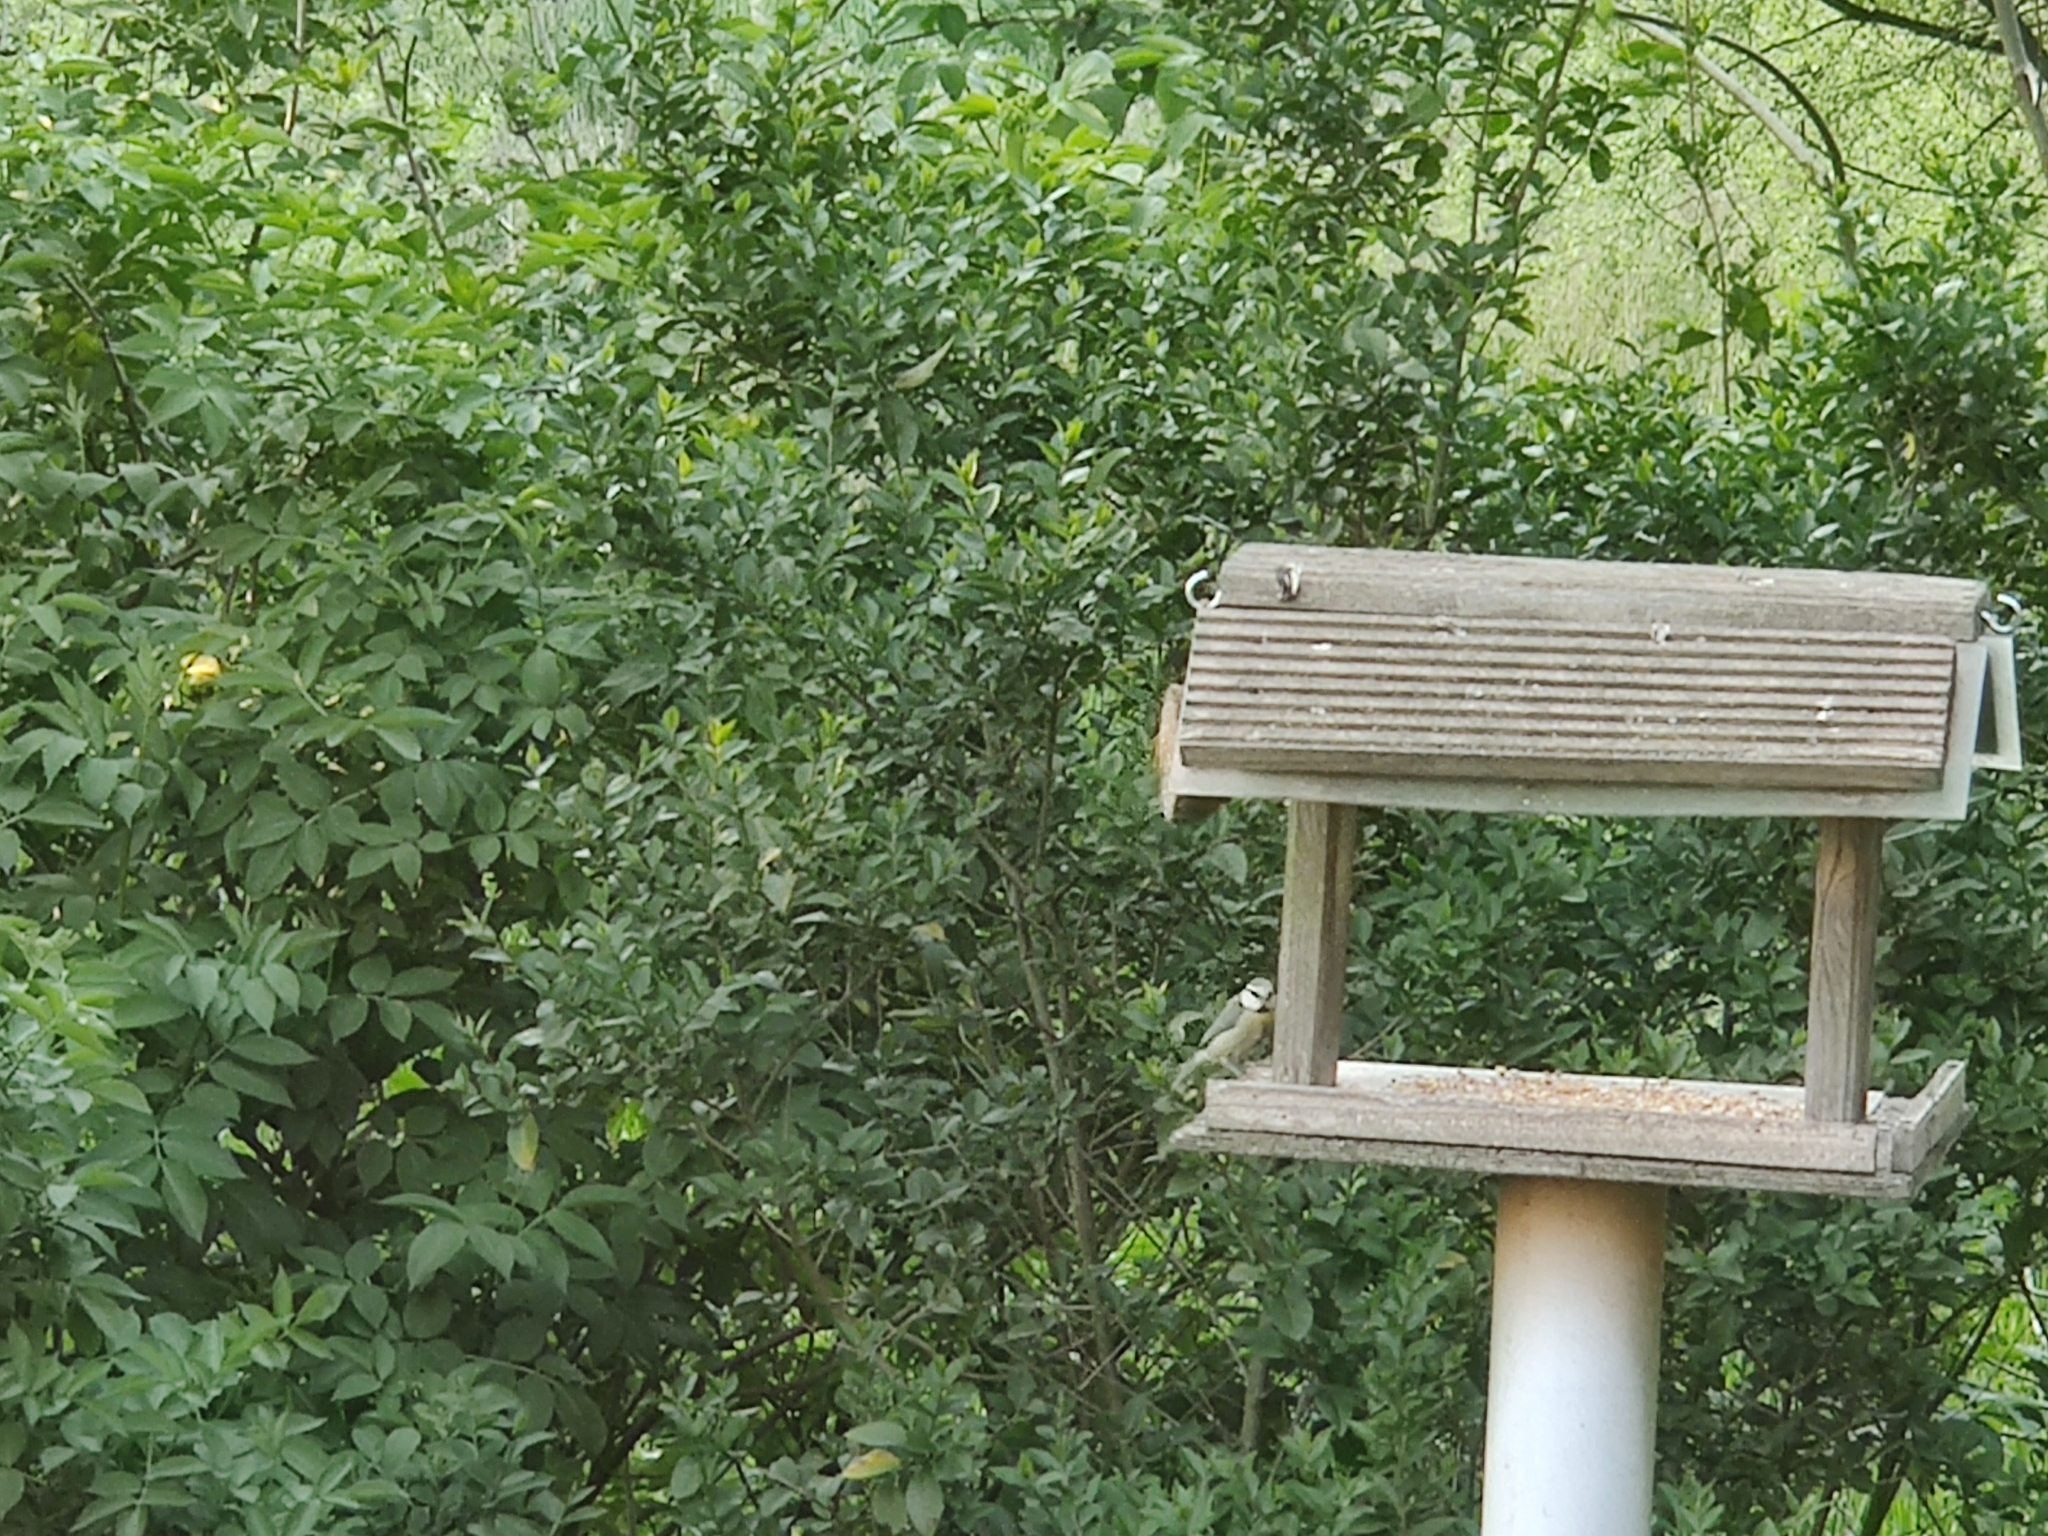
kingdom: Animalia
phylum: Chordata
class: Aves
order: Passeriformes
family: Paridae
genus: Cyanistes
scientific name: Cyanistes caeruleus
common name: Eurasian blue tit
